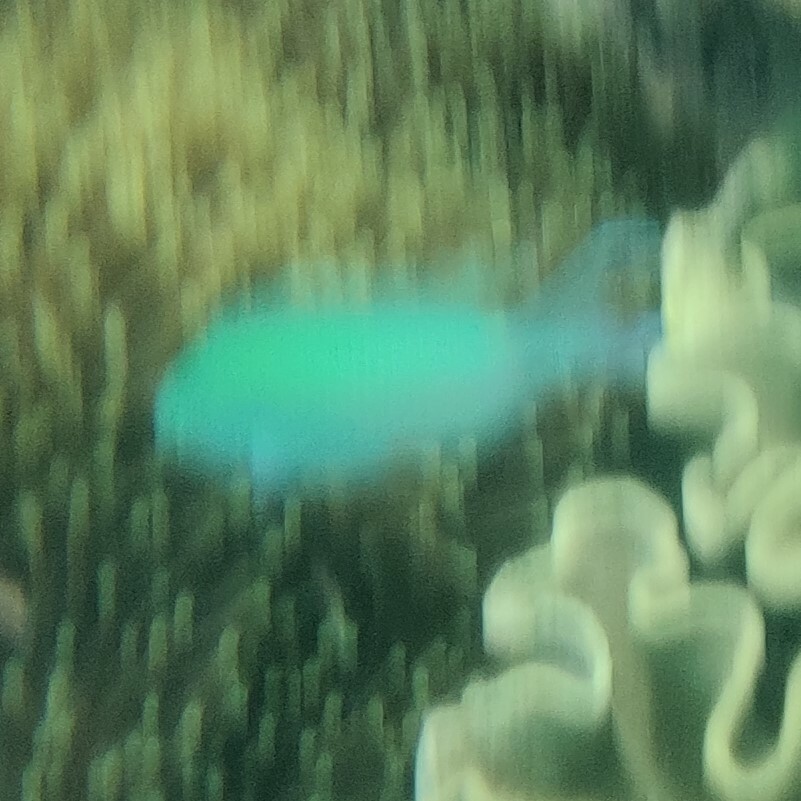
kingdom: Animalia
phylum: Chordata
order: Perciformes
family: Pomacentridae
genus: Chromis
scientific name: Chromis viridis
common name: Blue-green chromis
